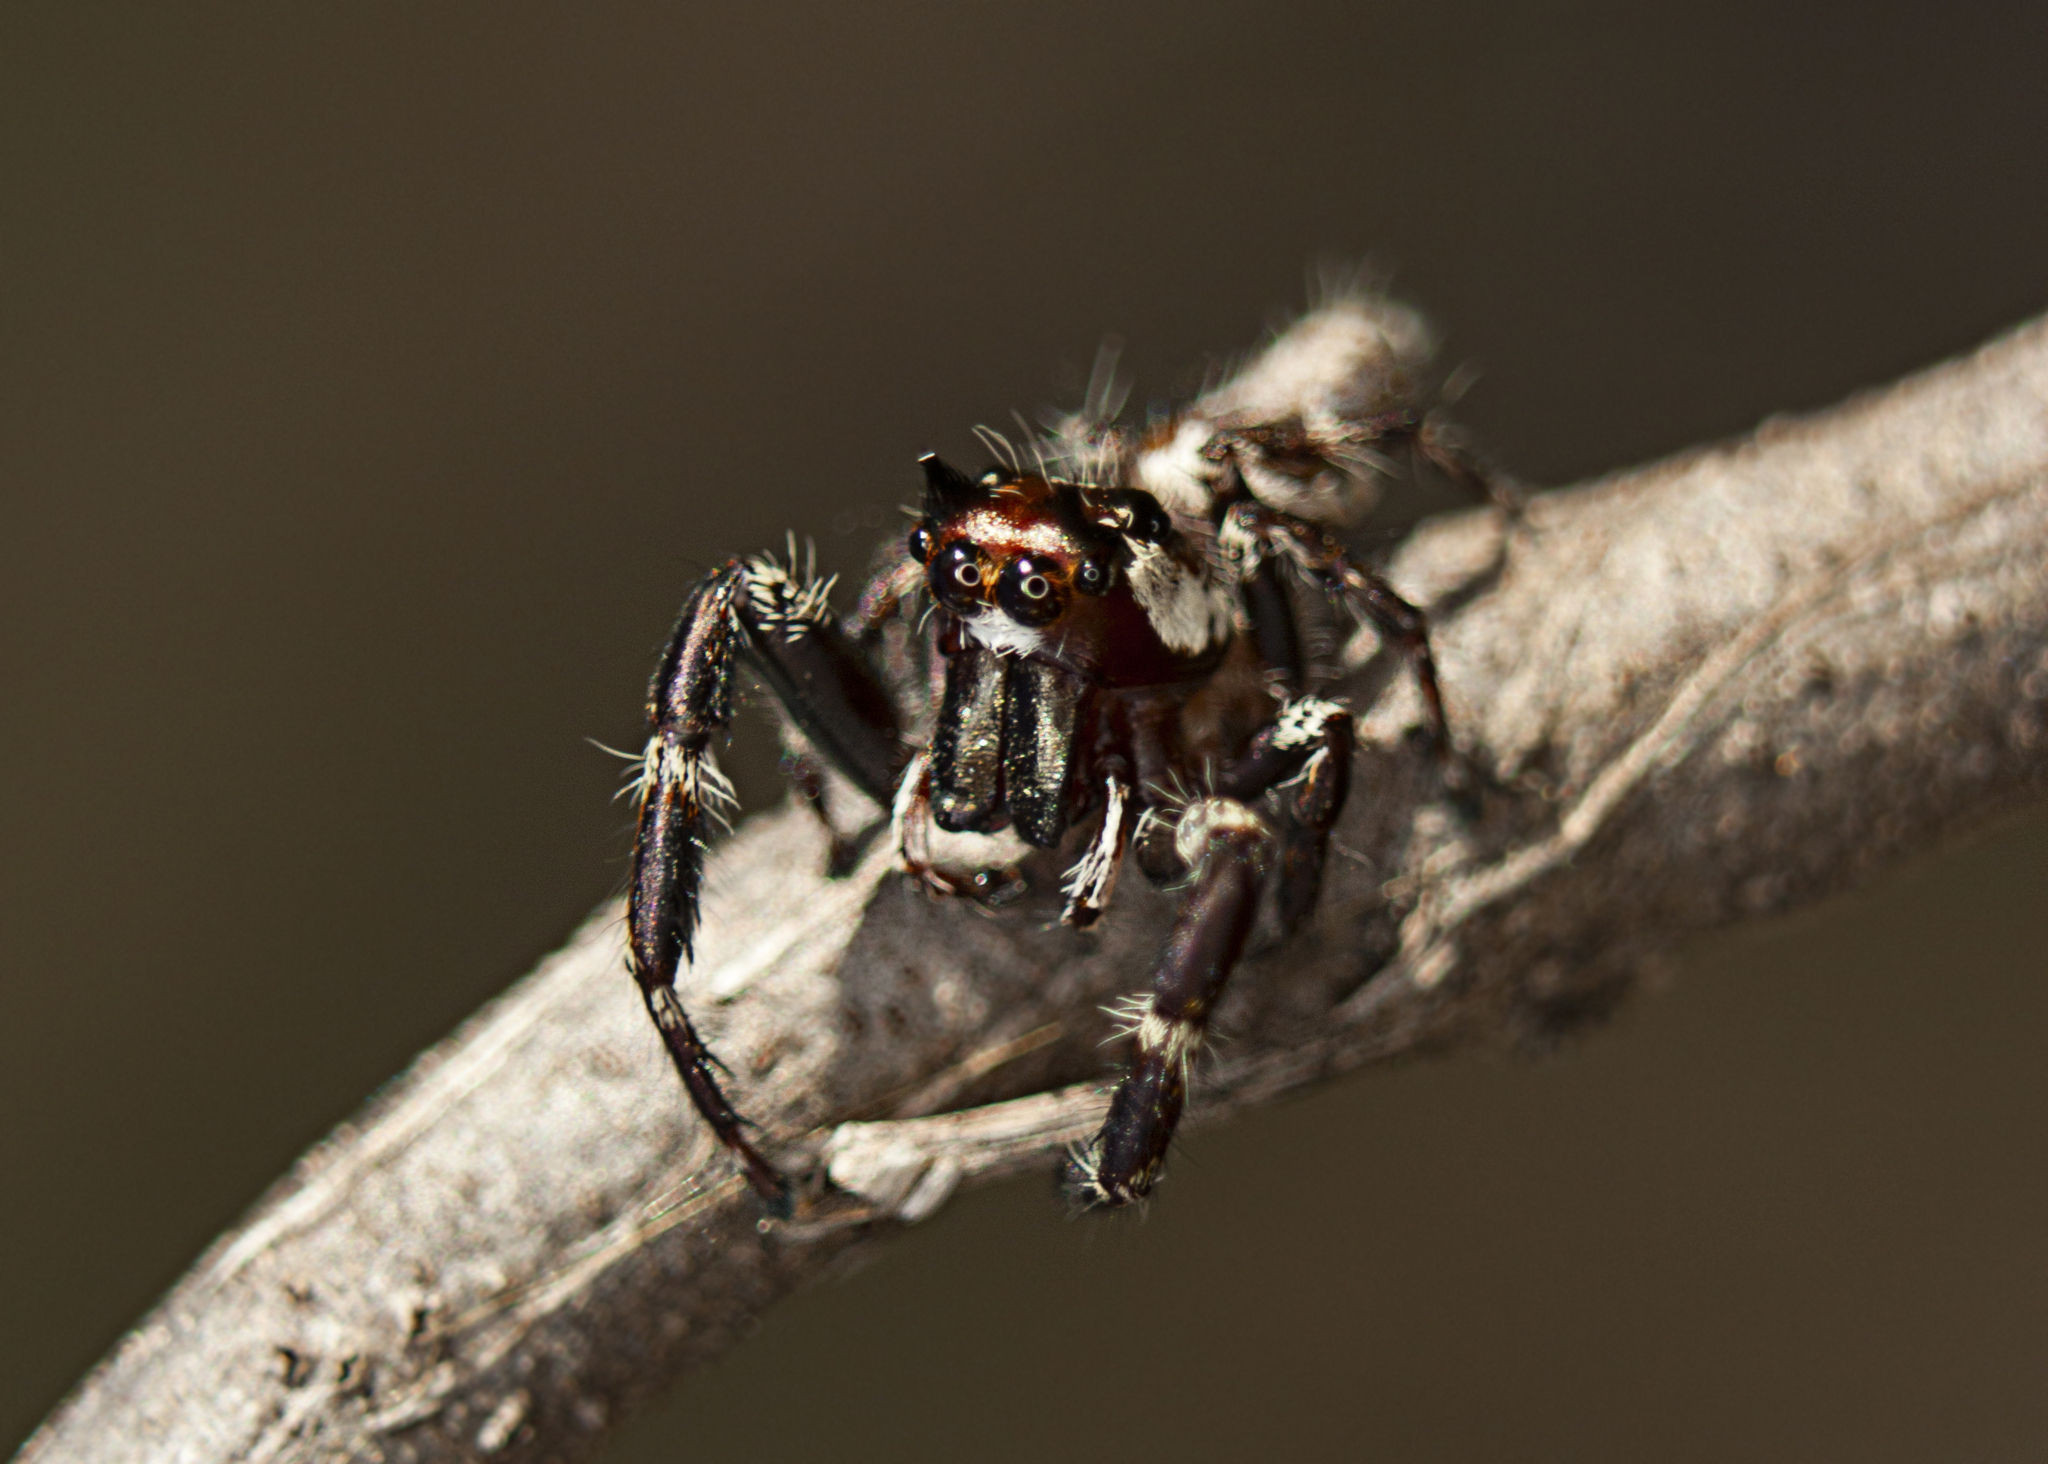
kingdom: Animalia
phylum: Arthropoda
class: Arachnida
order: Araneae
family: Salticidae
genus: Sandalodes
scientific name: Sandalodes bipenicillatus
